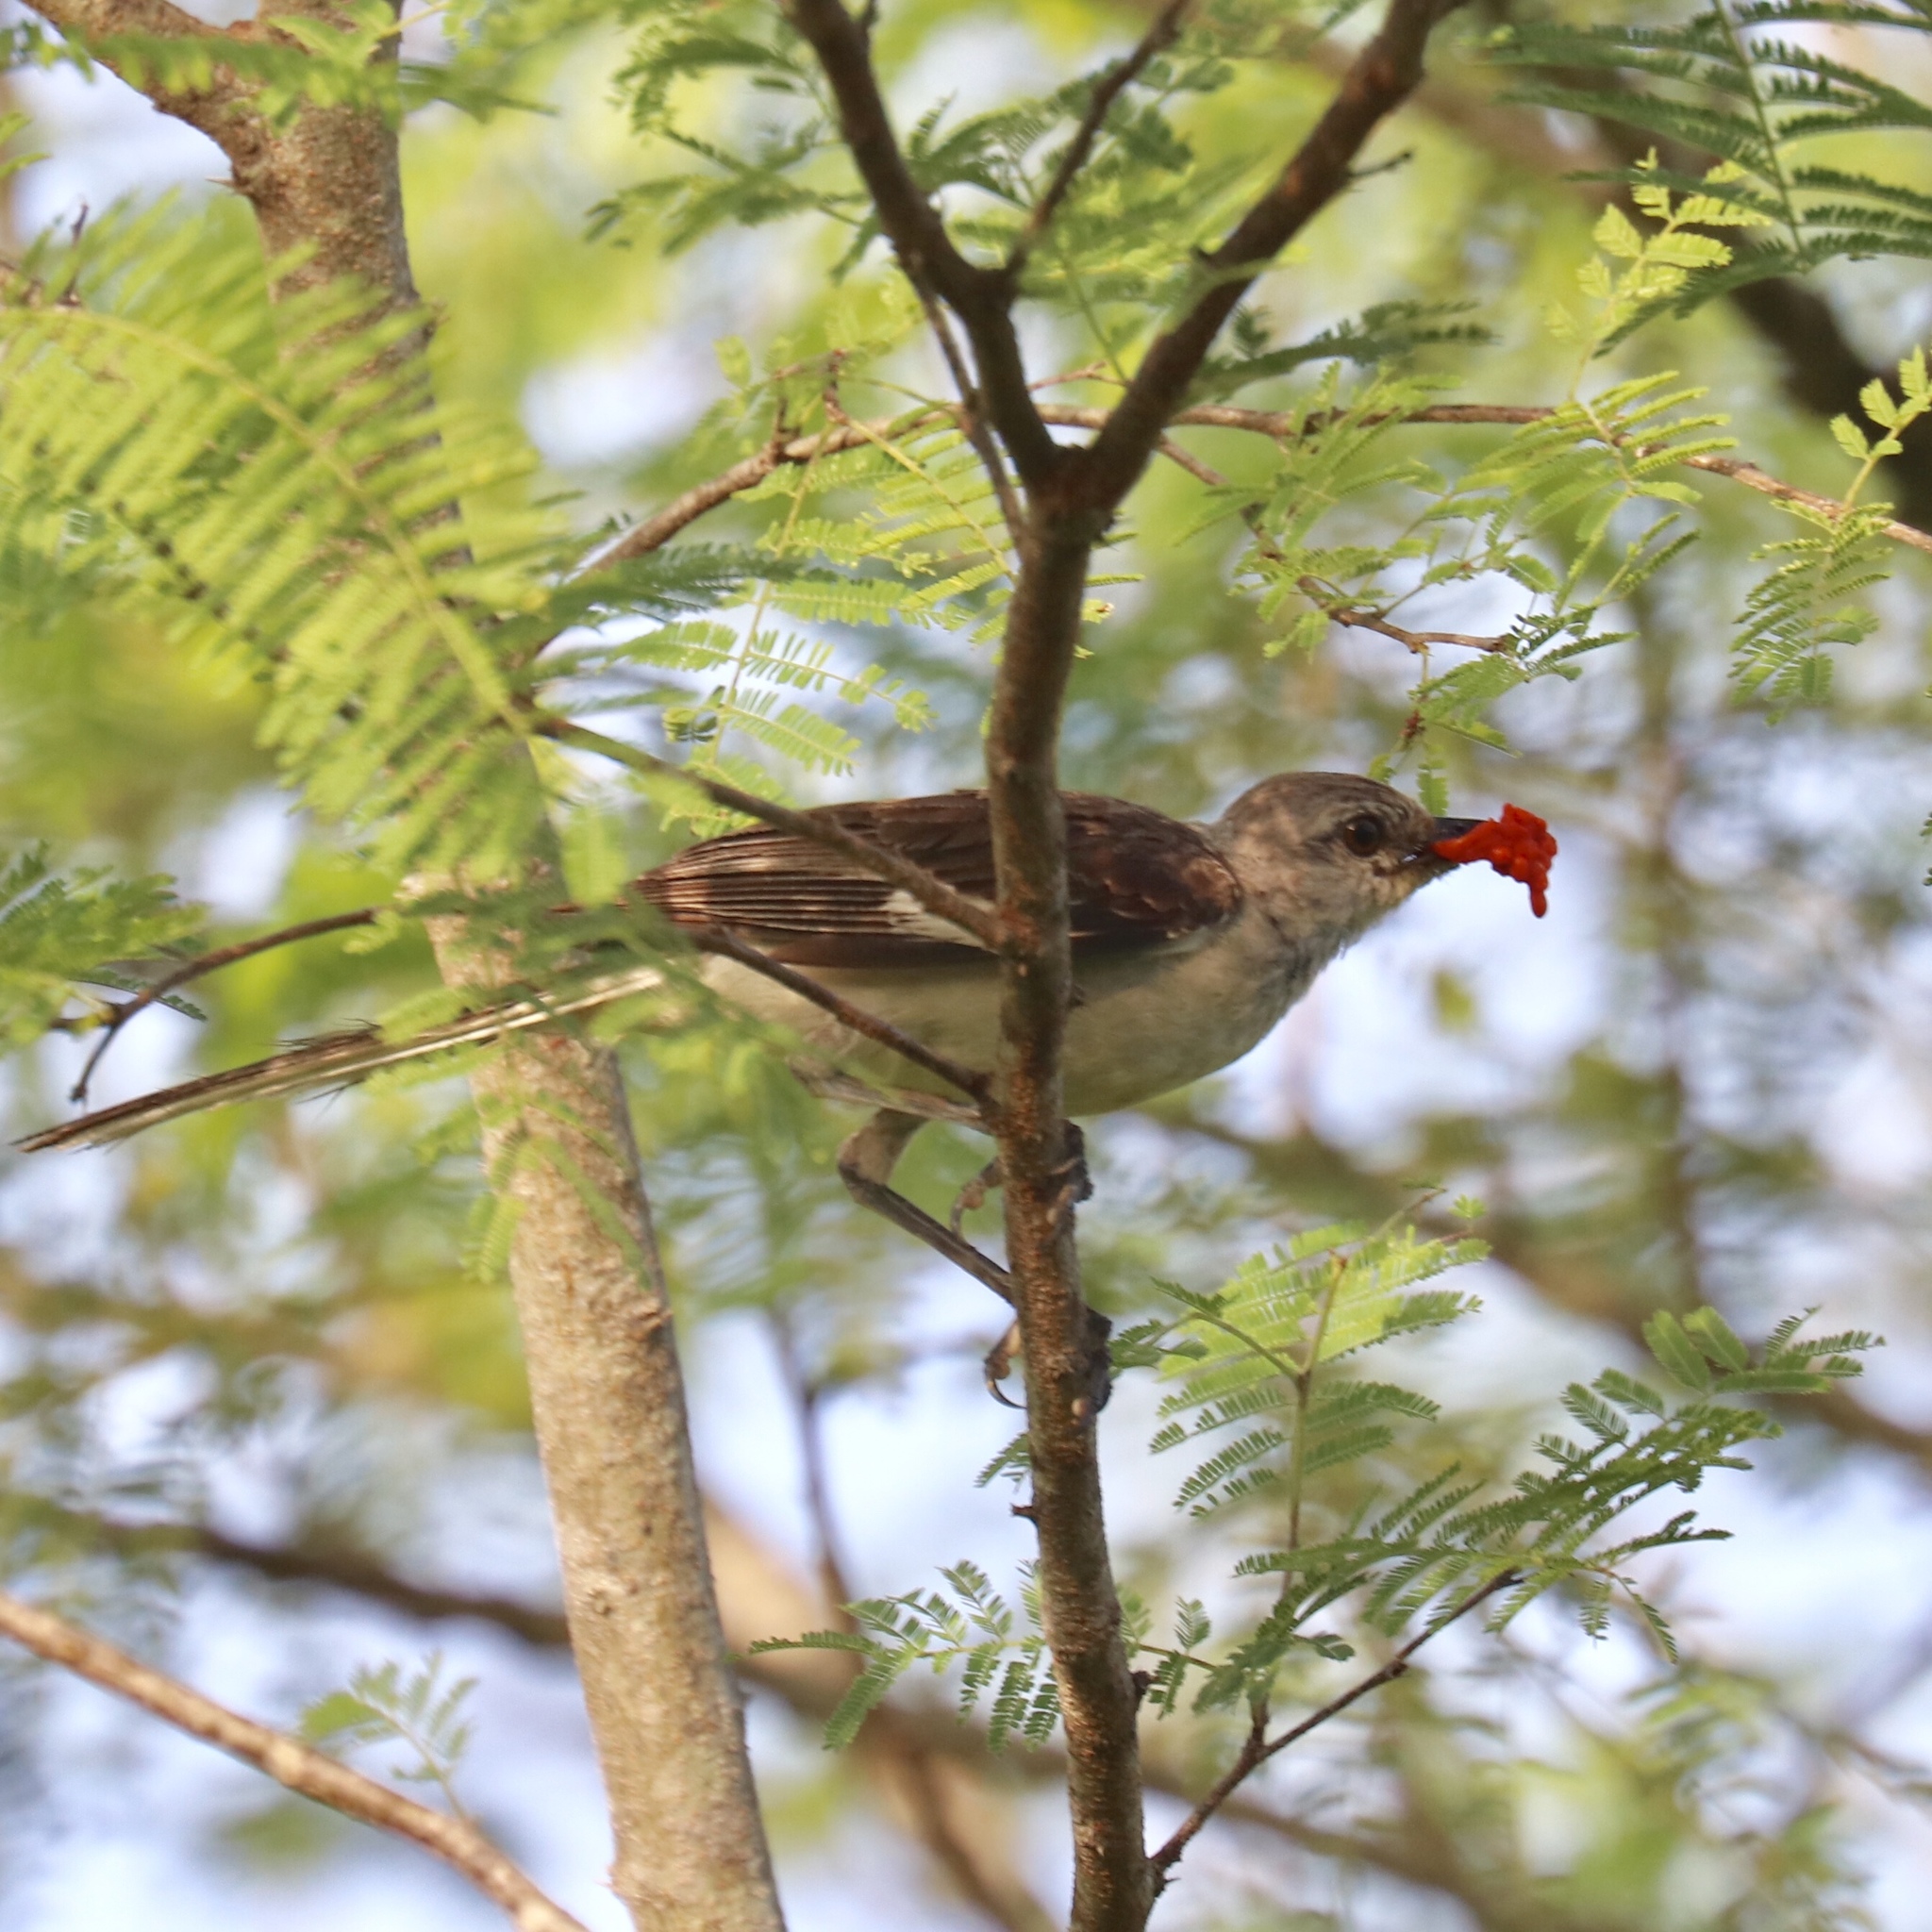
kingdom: Animalia
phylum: Chordata
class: Aves
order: Passeriformes
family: Mimidae
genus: Mimus
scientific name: Mimus polyglottos
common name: Northern mockingbird
